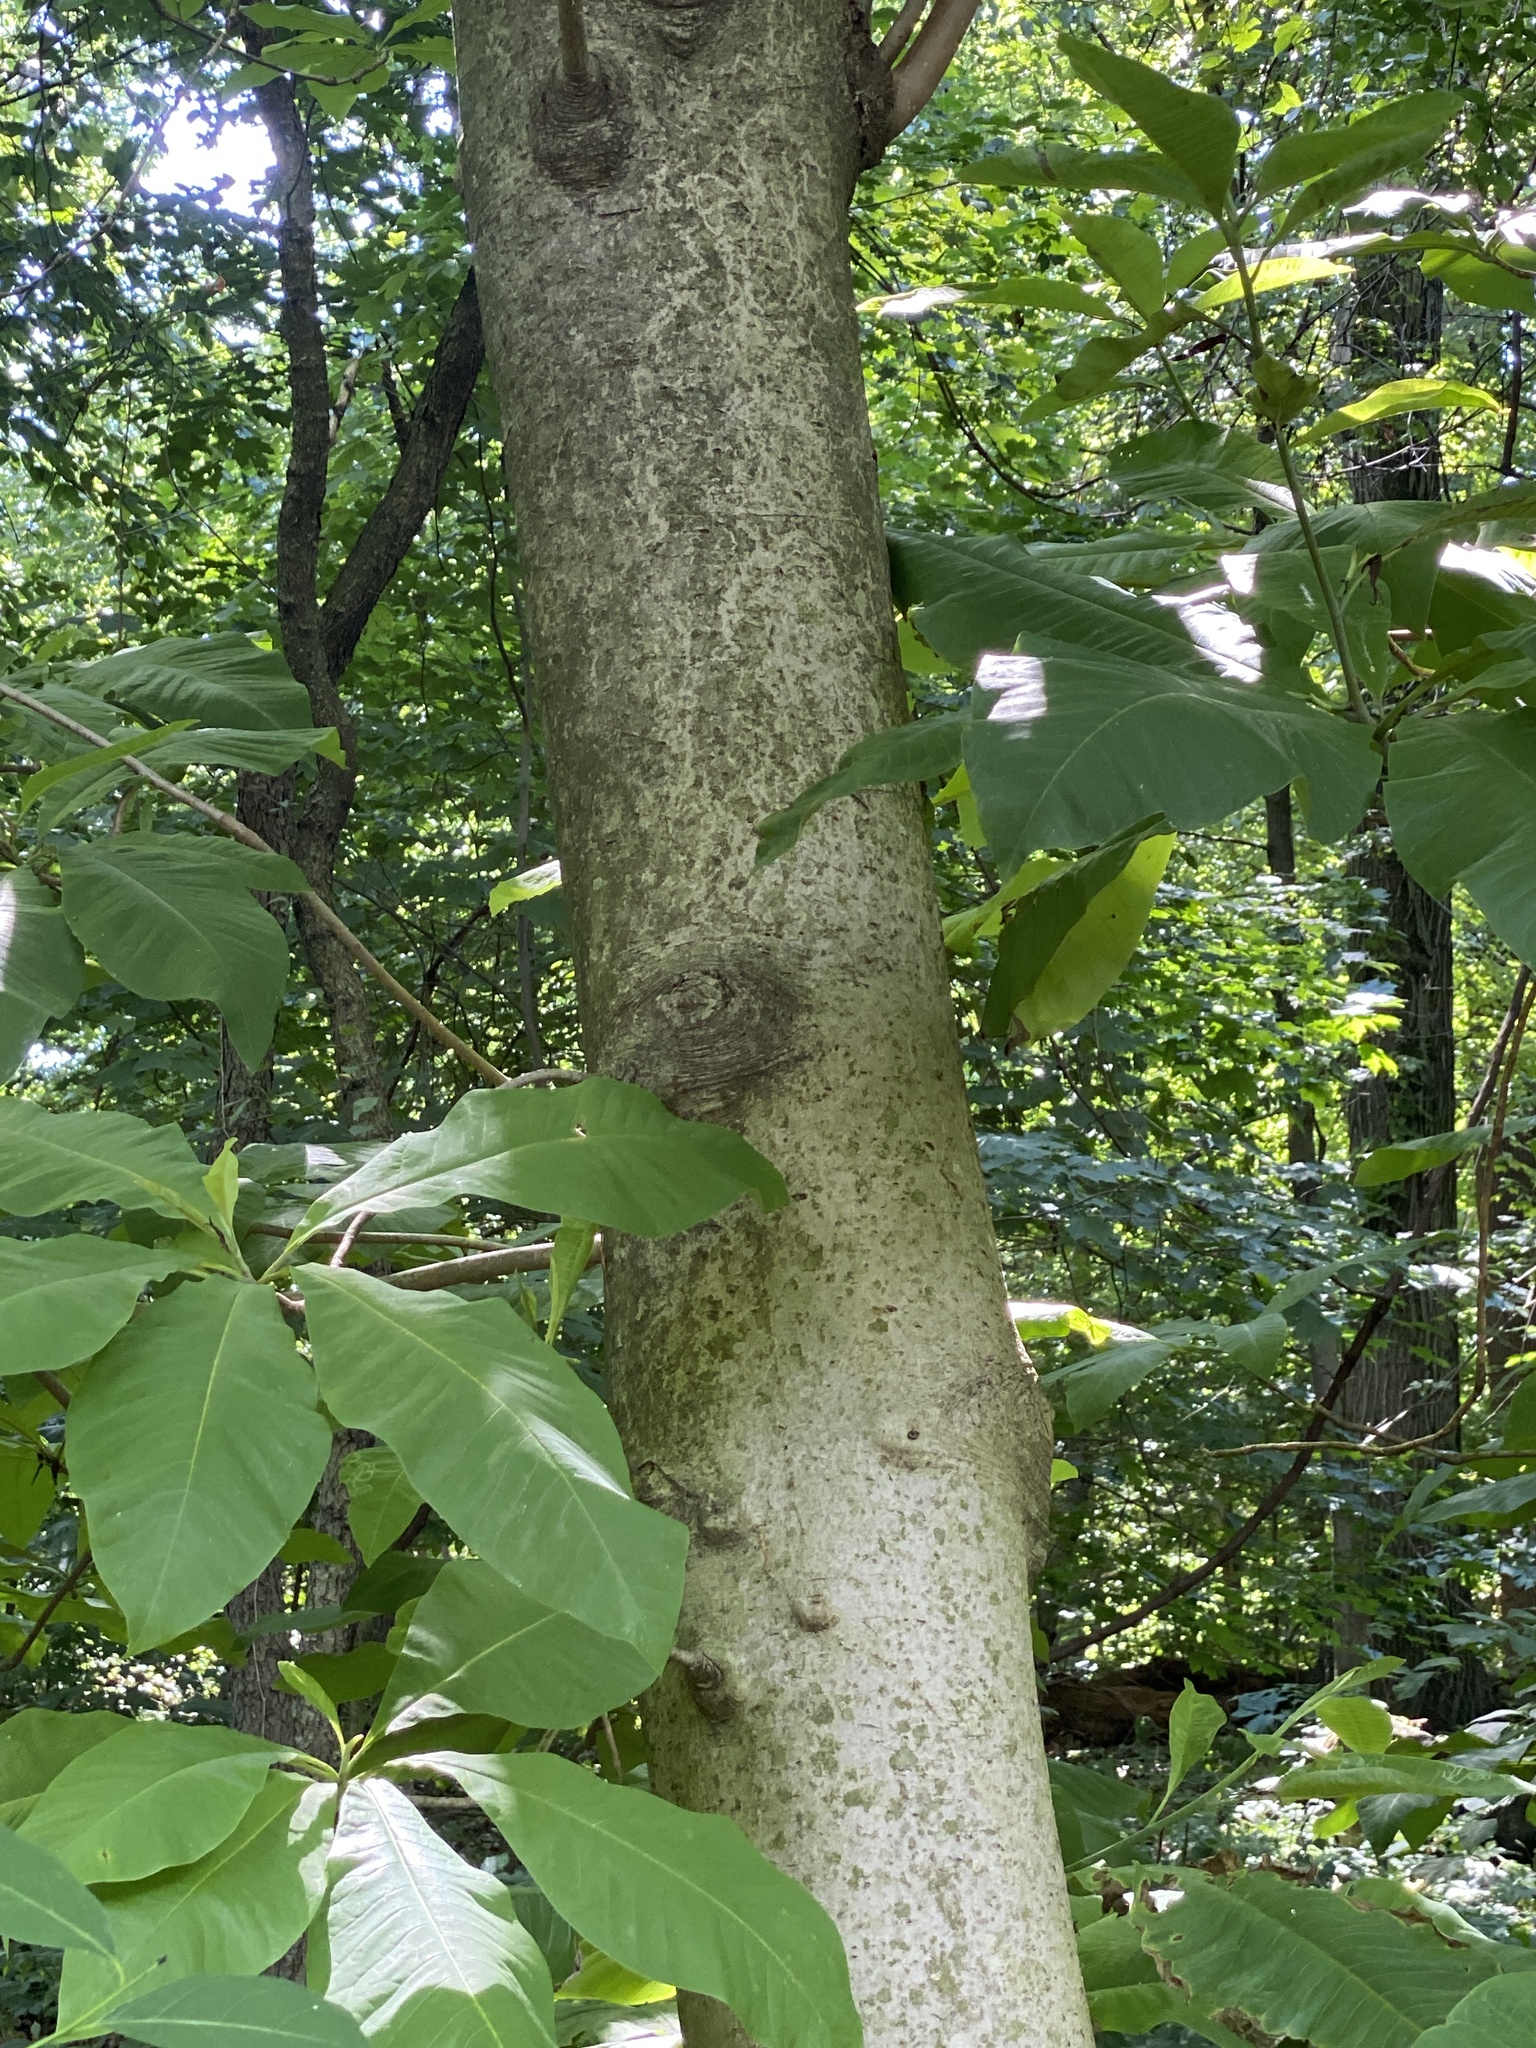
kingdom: Plantae
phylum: Tracheophyta
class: Magnoliopsida
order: Magnoliales
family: Magnoliaceae
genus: Magnolia
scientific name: Magnolia tripetala
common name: Umbrella magnolia
